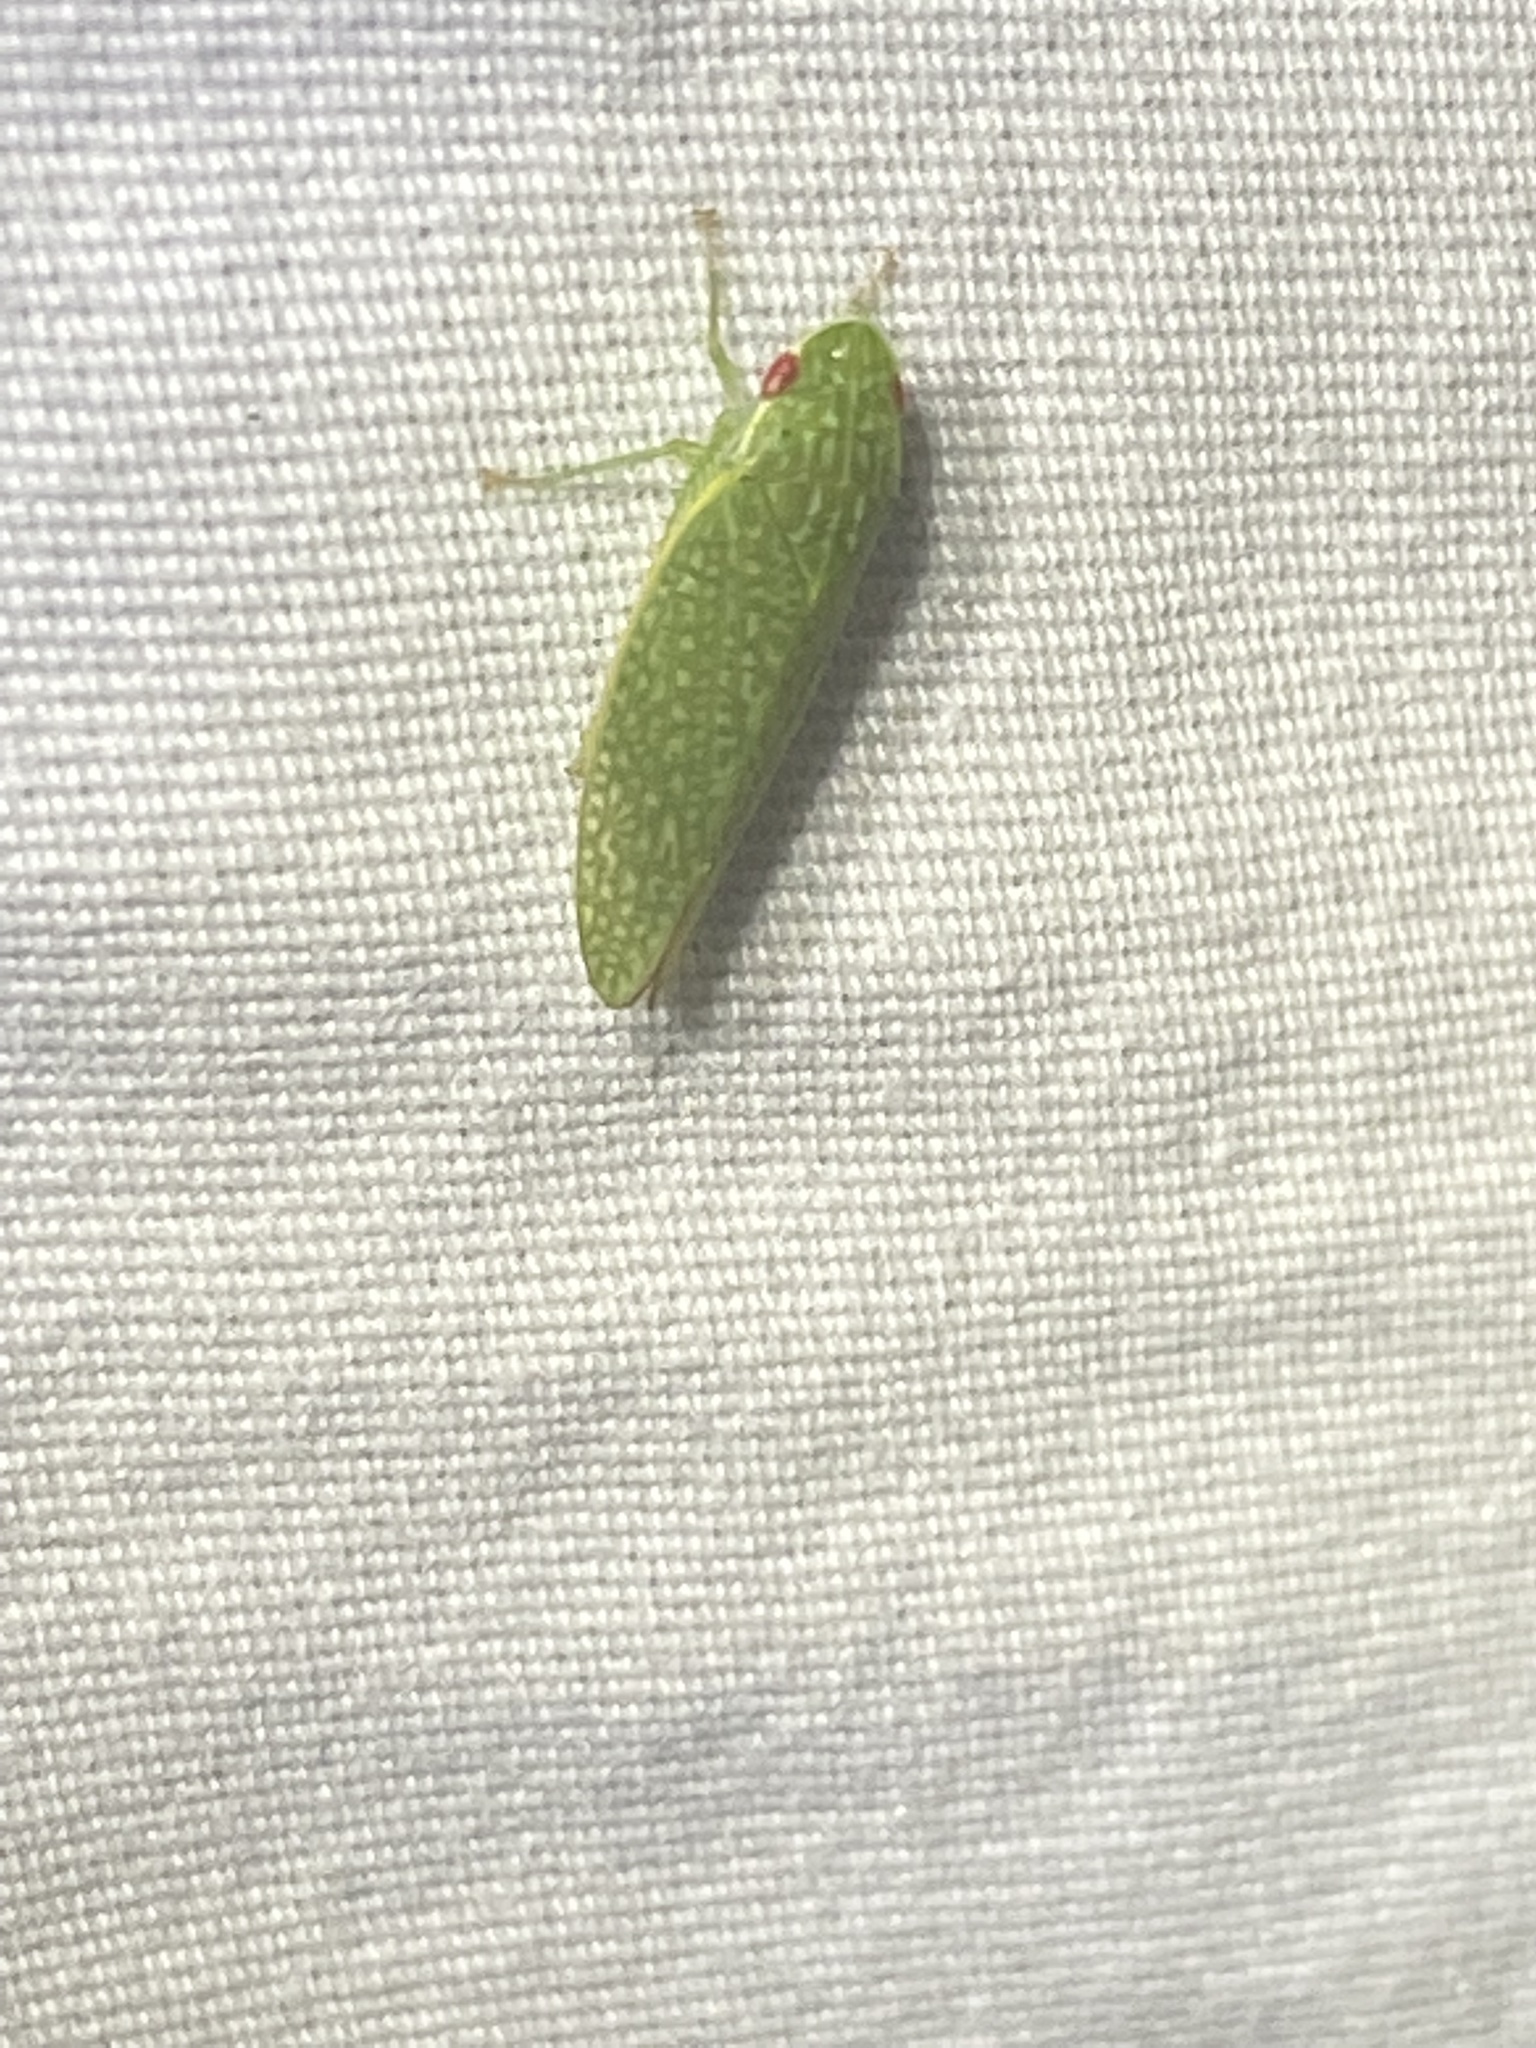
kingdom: Animalia
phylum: Arthropoda
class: Insecta
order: Hemiptera
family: Cicadellidae
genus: Rugosana
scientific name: Rugosana querci
